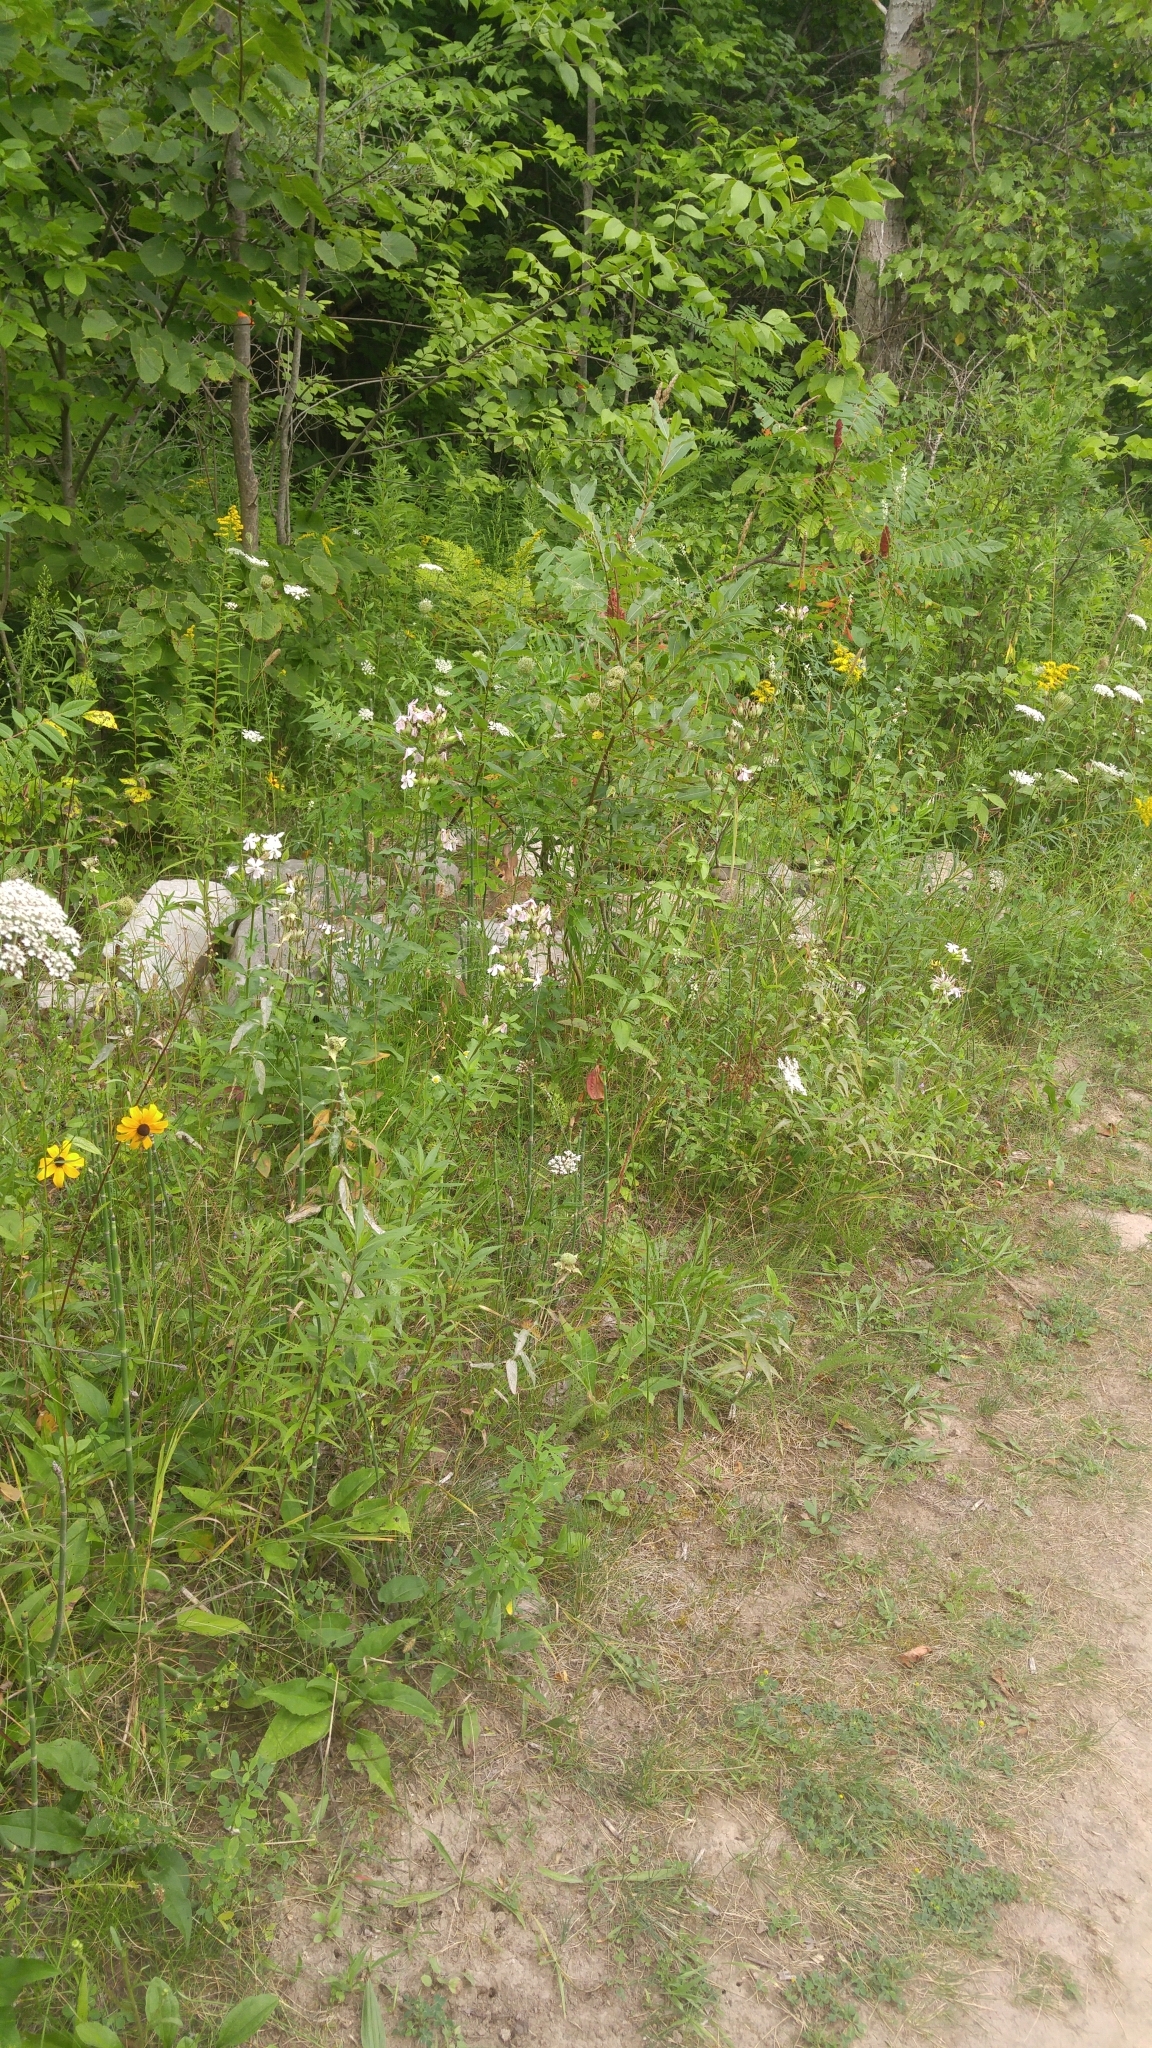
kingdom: Animalia
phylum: Chordata
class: Mammalia
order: Lagomorpha
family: Leporidae
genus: Sylvilagus
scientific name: Sylvilagus floridanus
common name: Eastern cottontail
